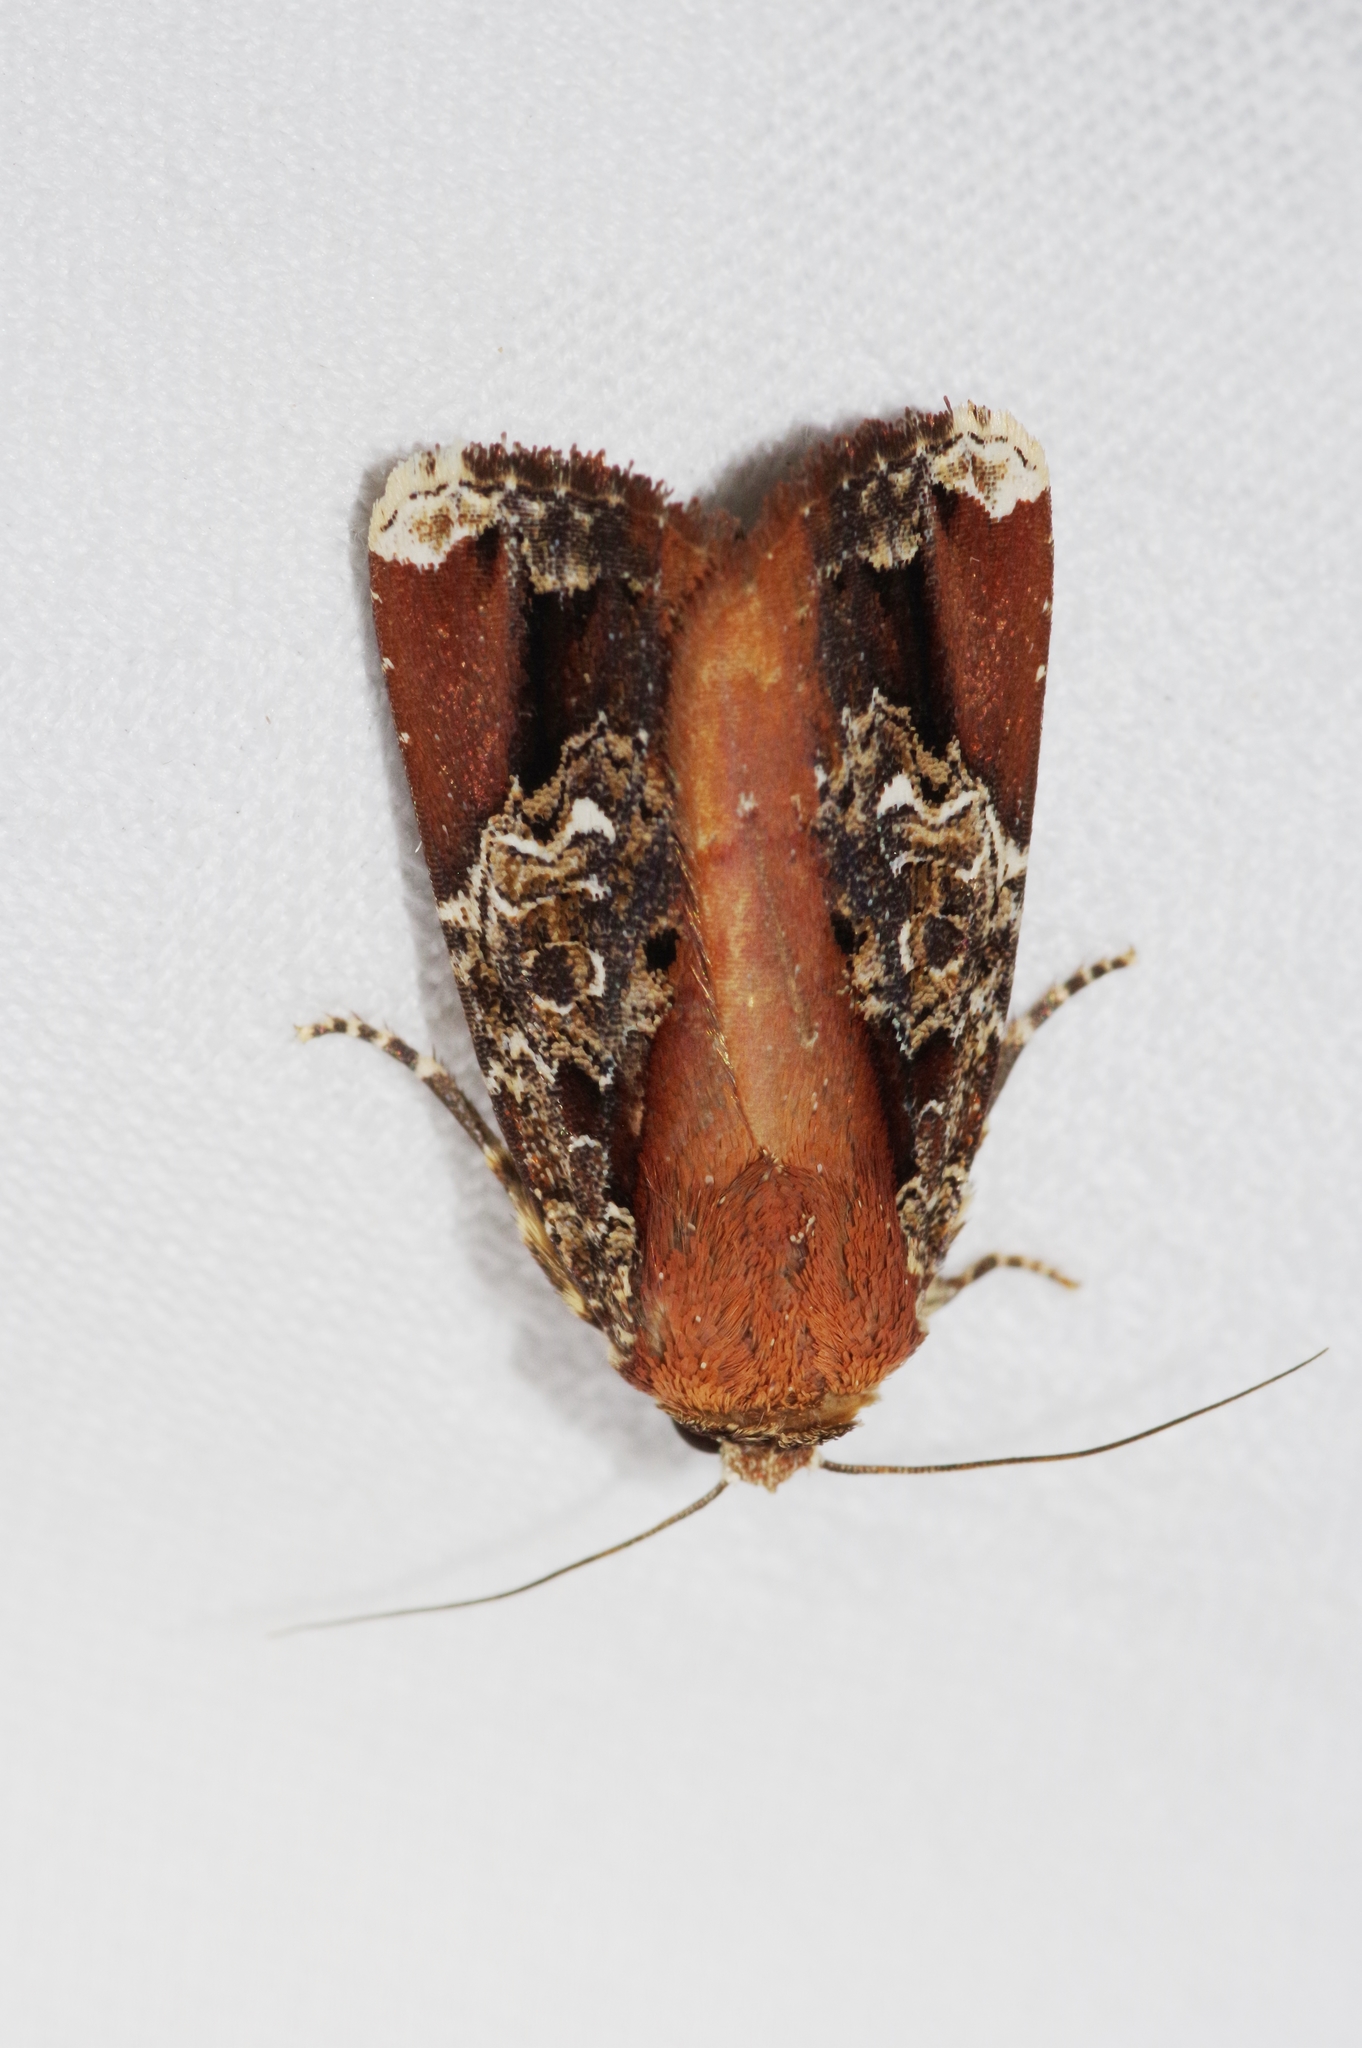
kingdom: Animalia
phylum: Arthropoda
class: Insecta
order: Lepidoptera
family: Noctuidae
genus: Callyna
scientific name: Callyna contracta
